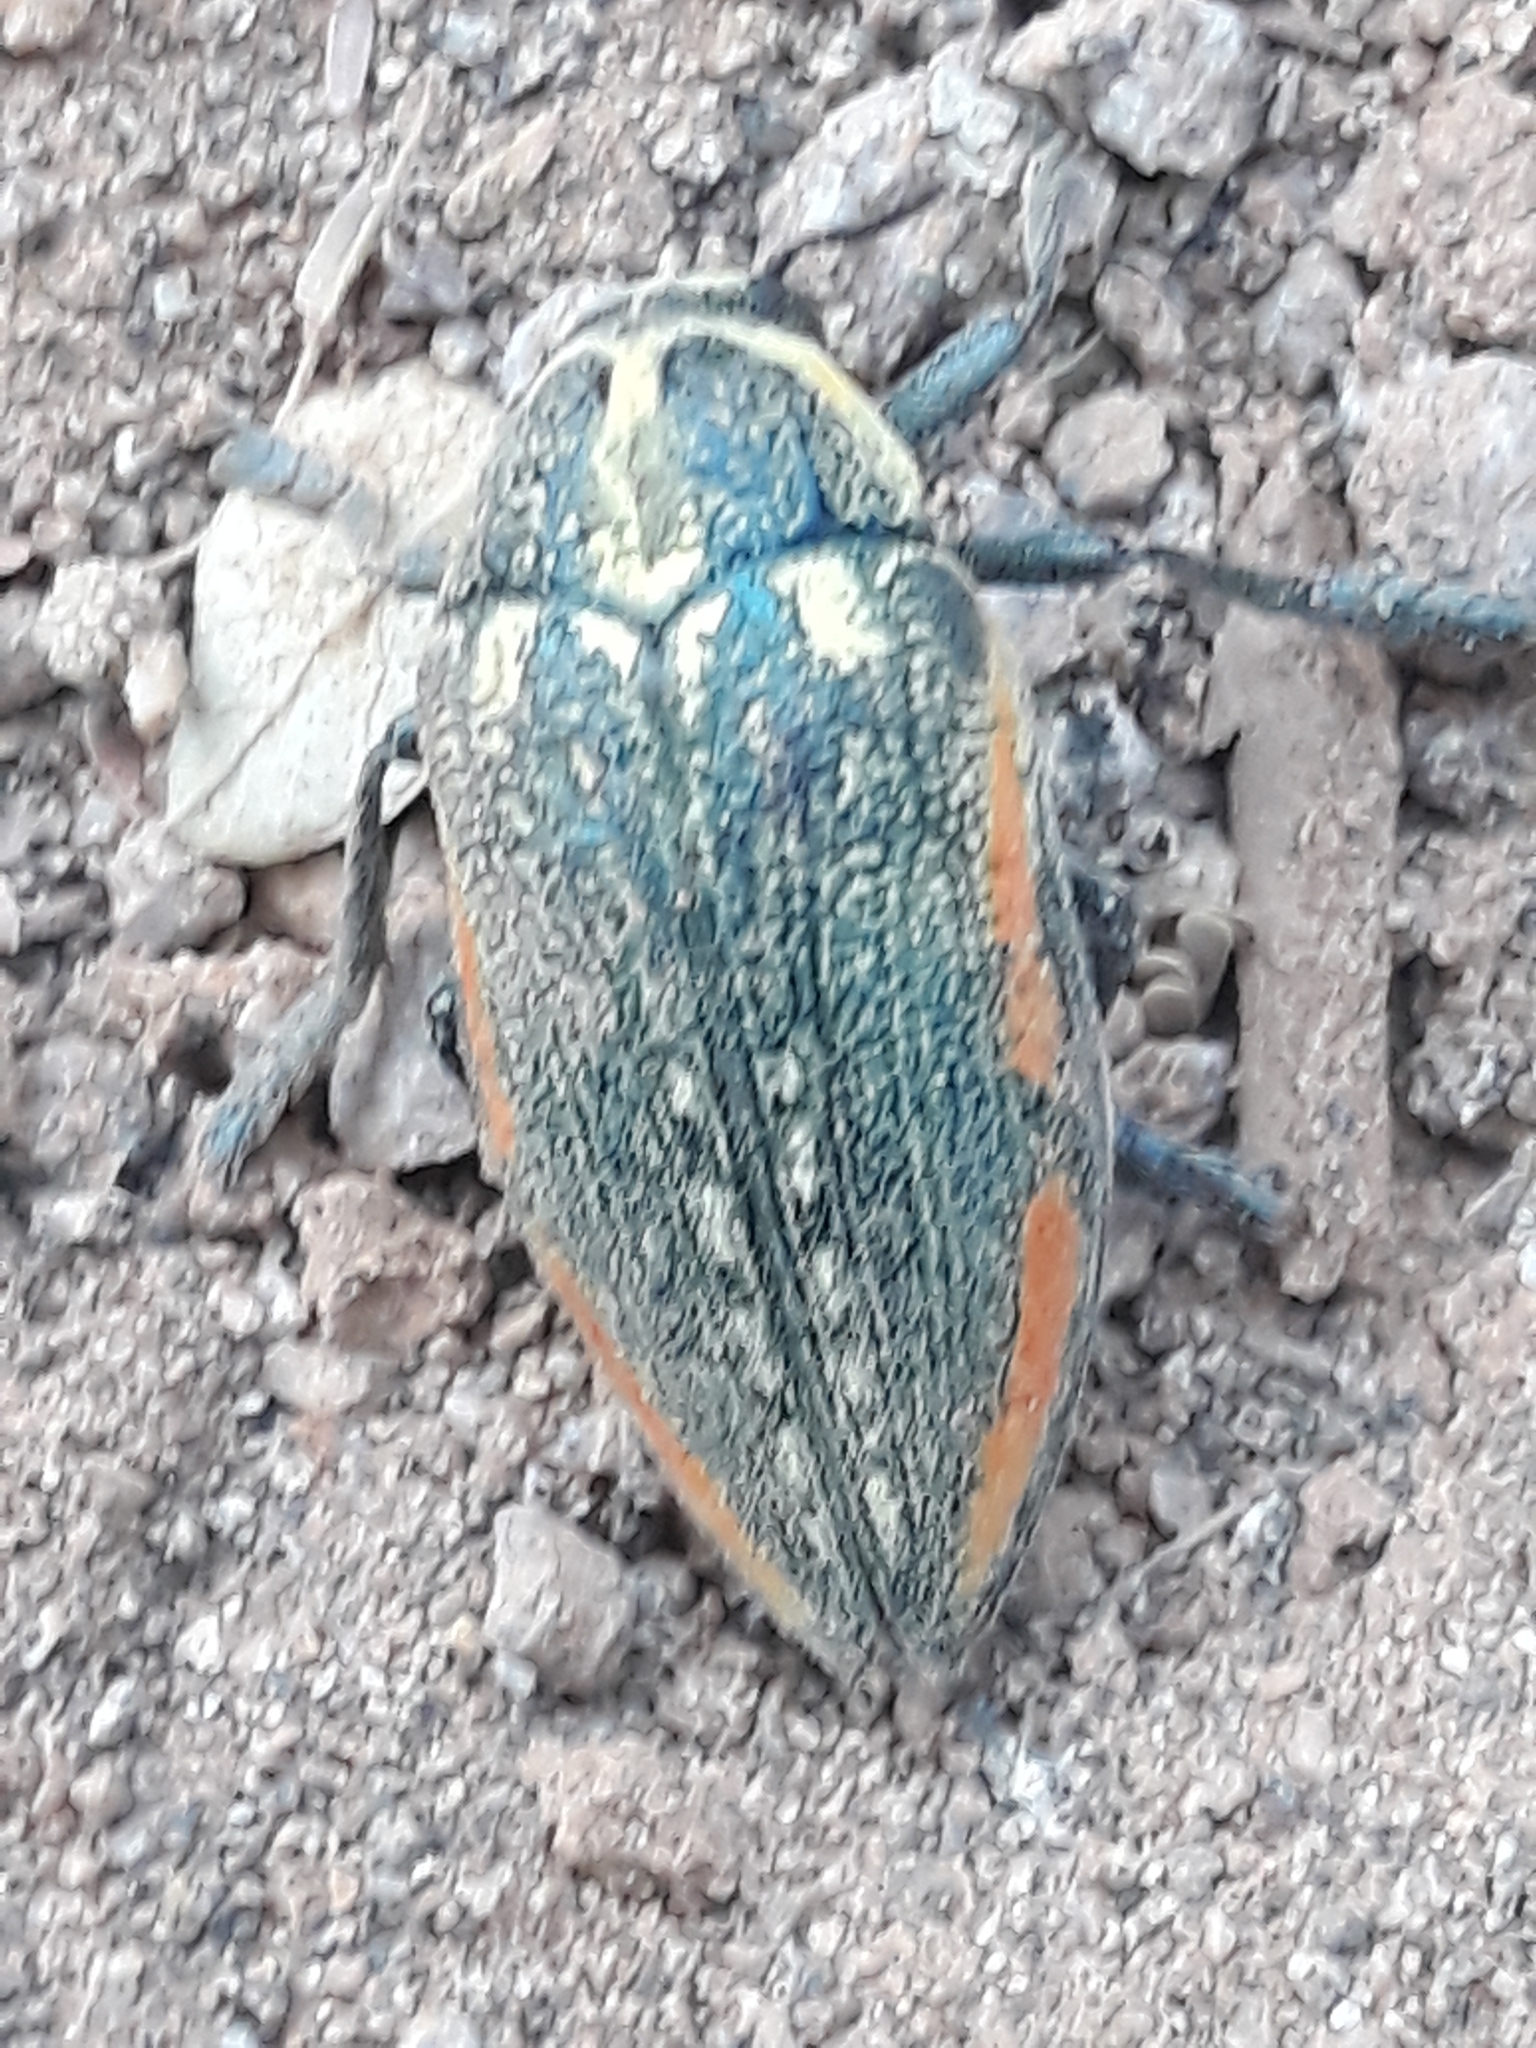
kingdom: Animalia
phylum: Arthropoda
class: Insecta
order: Coleoptera
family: Buprestidae
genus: Julodis
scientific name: Julodis fimbriata
